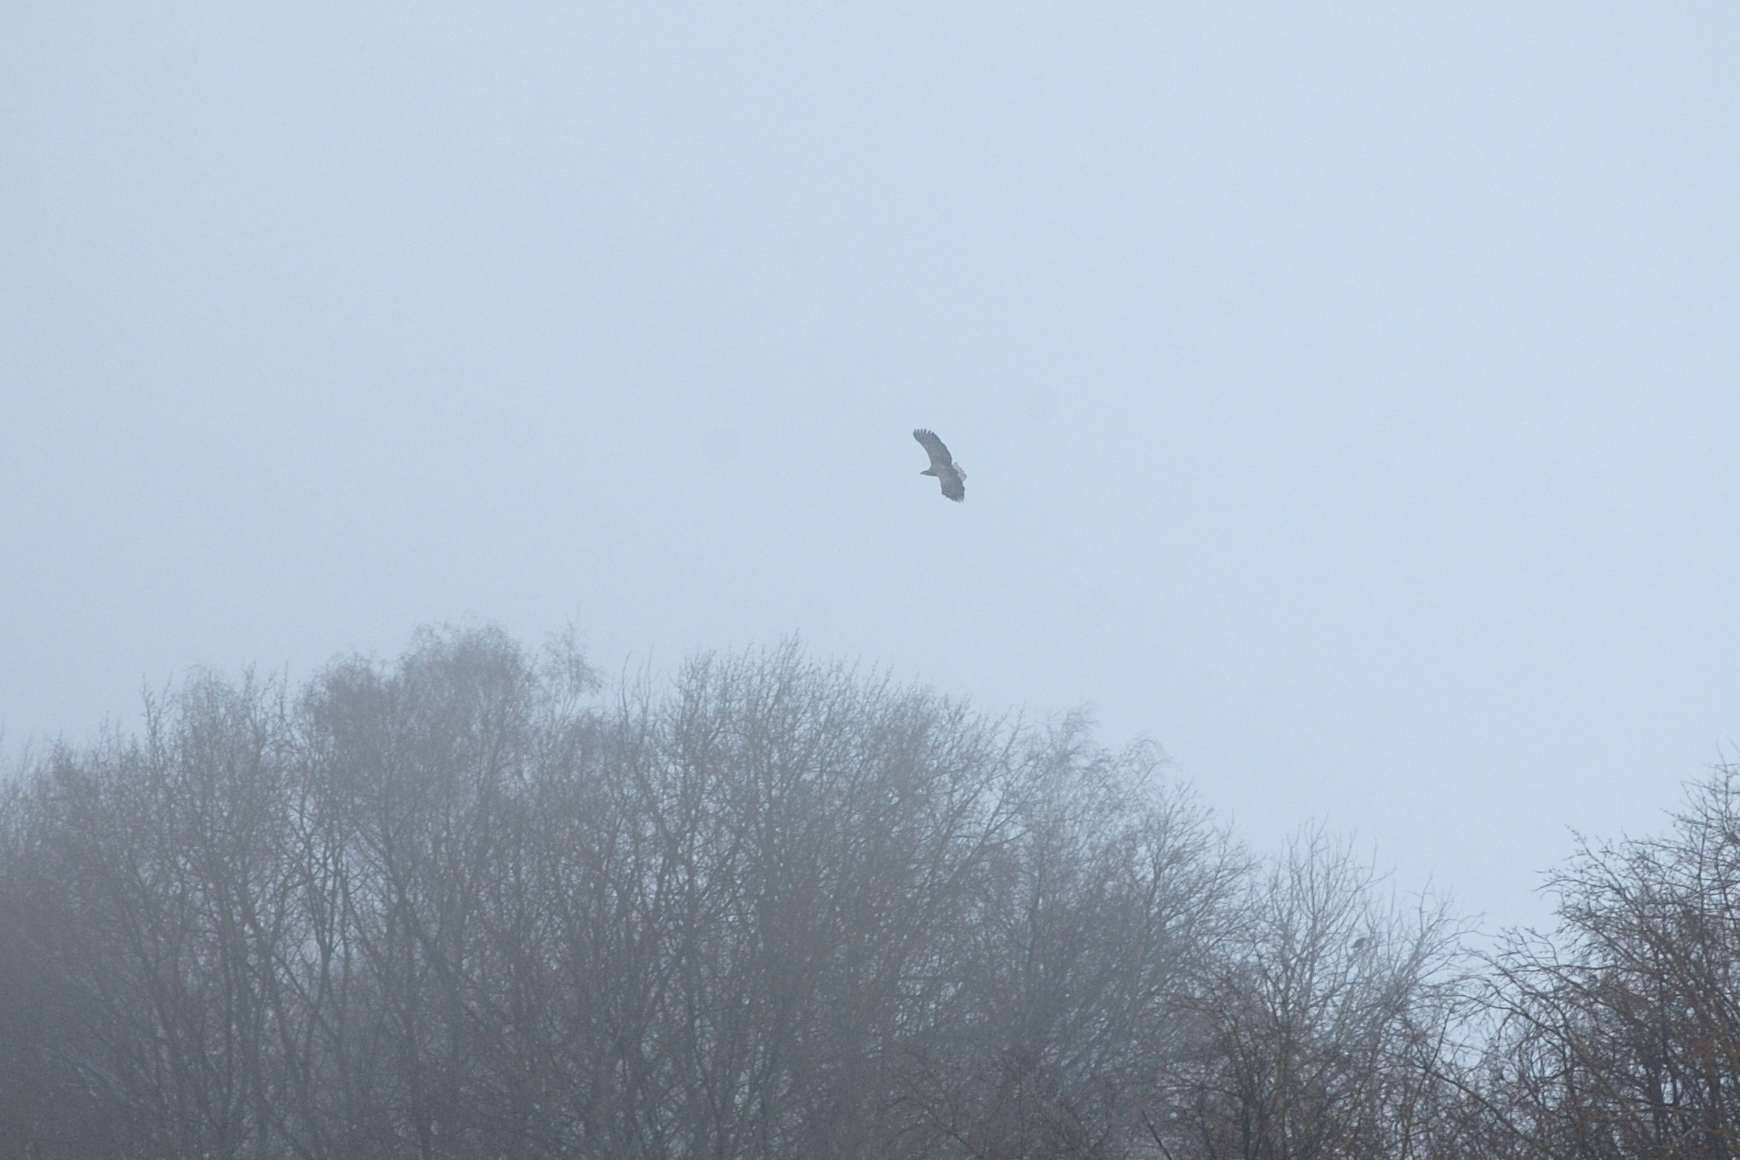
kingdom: Animalia
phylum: Chordata
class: Aves
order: Accipitriformes
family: Accipitridae
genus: Haliaeetus
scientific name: Haliaeetus albicilla
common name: White-tailed eagle
